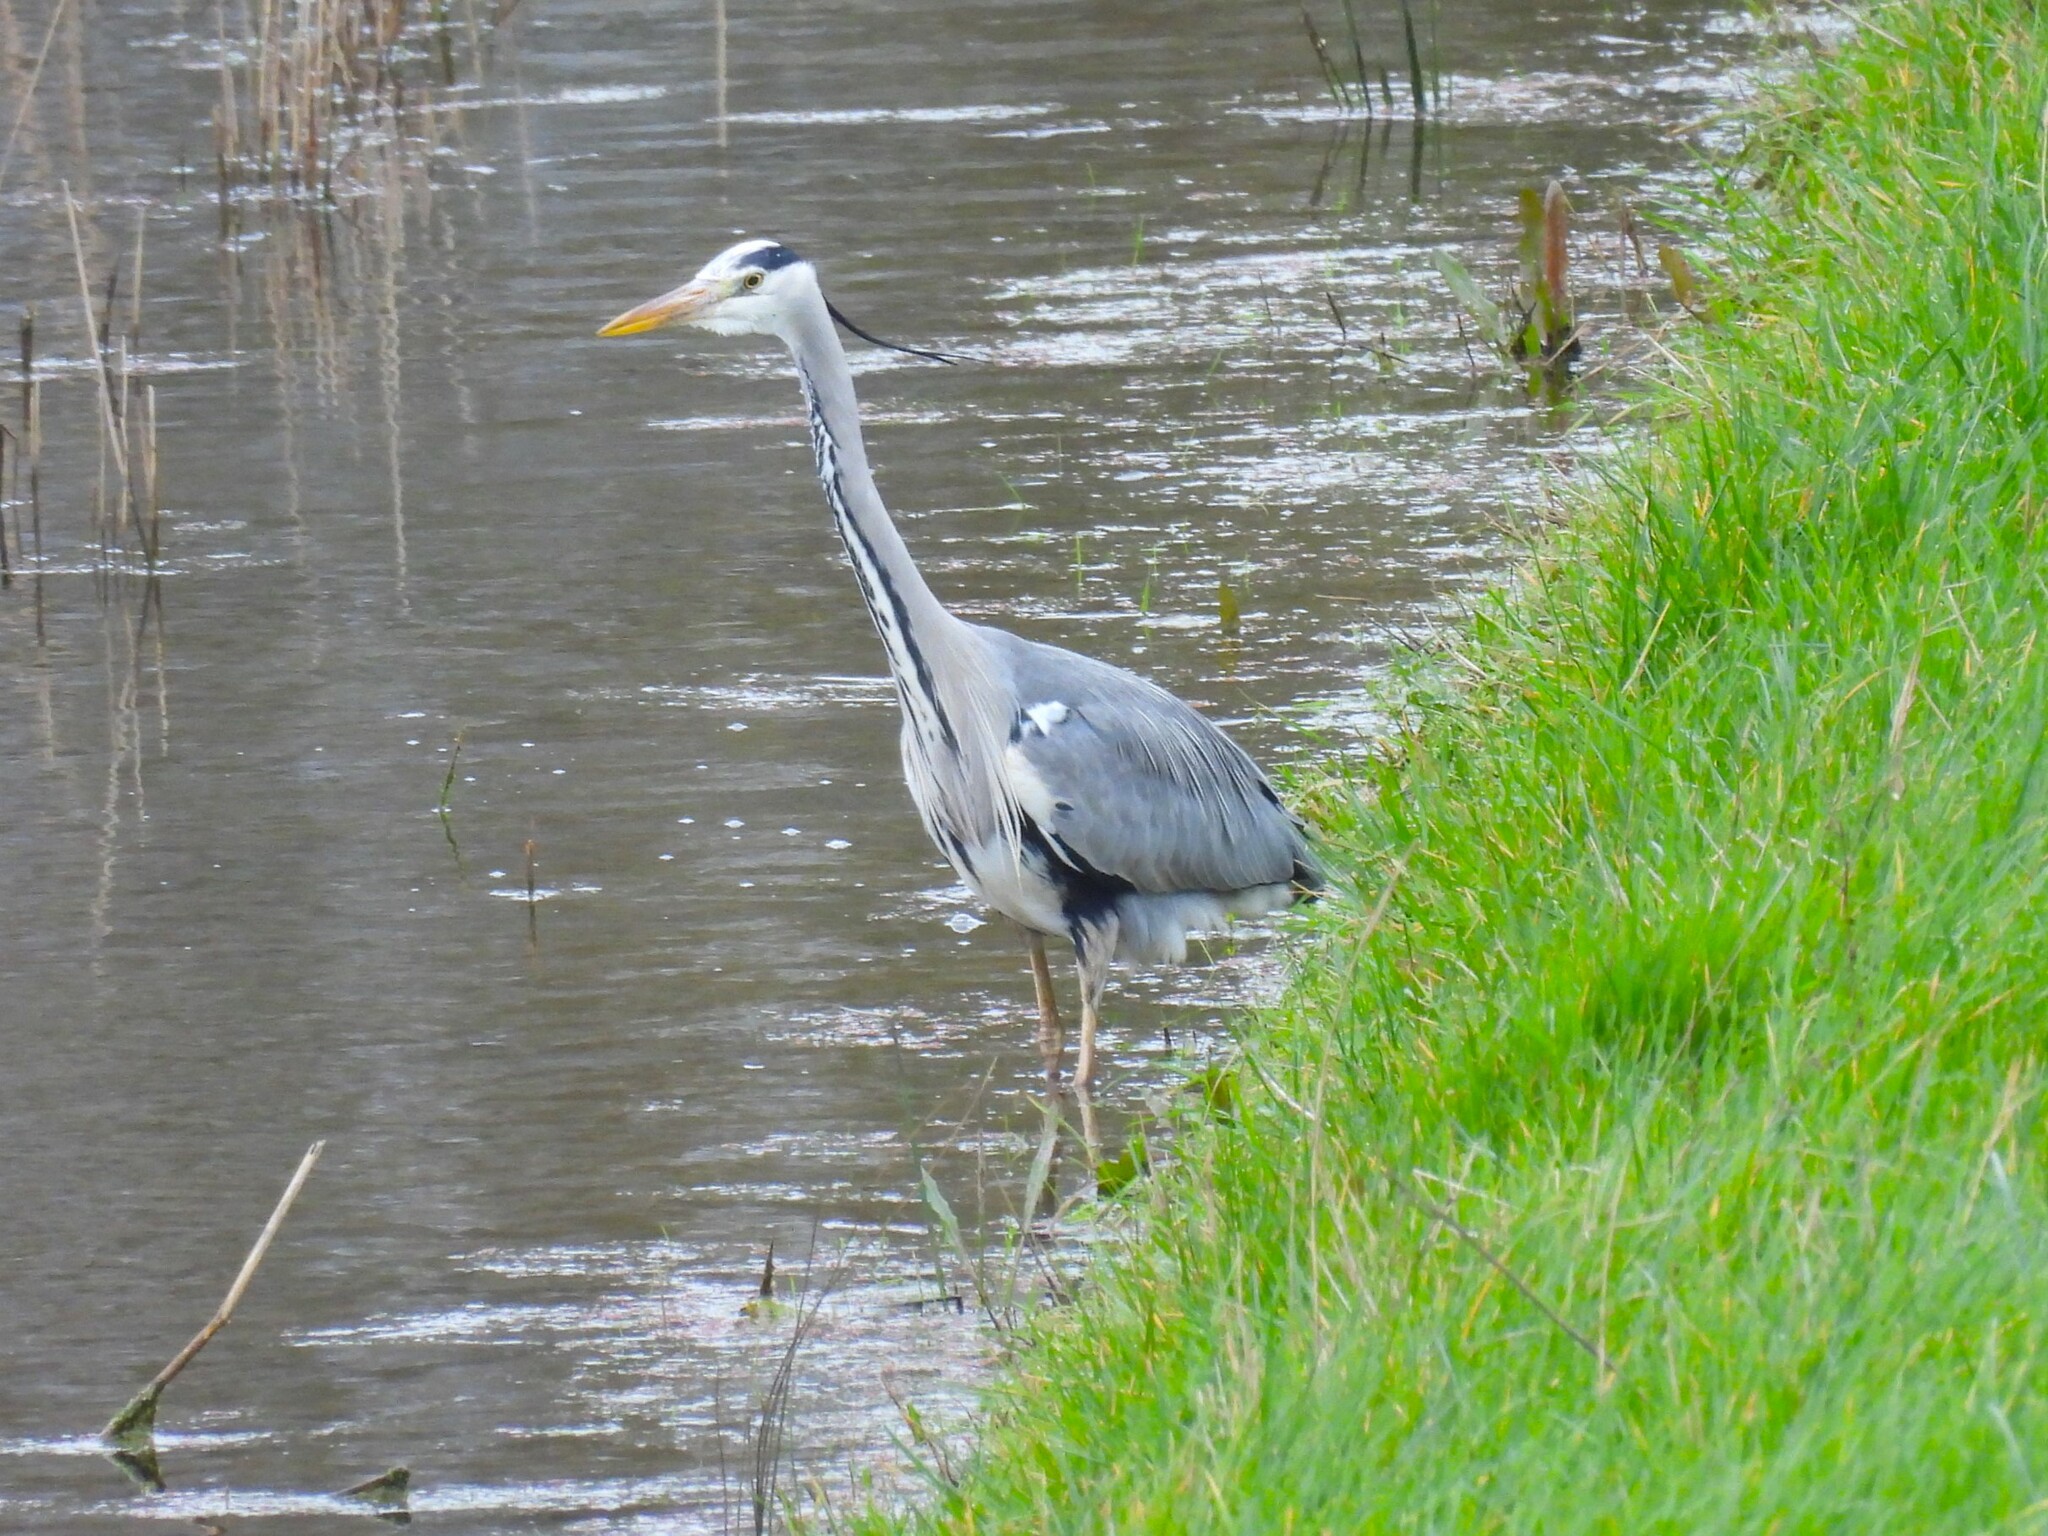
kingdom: Animalia
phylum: Chordata
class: Aves
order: Pelecaniformes
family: Ardeidae
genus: Ardea
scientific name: Ardea cinerea
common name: Grey heron
